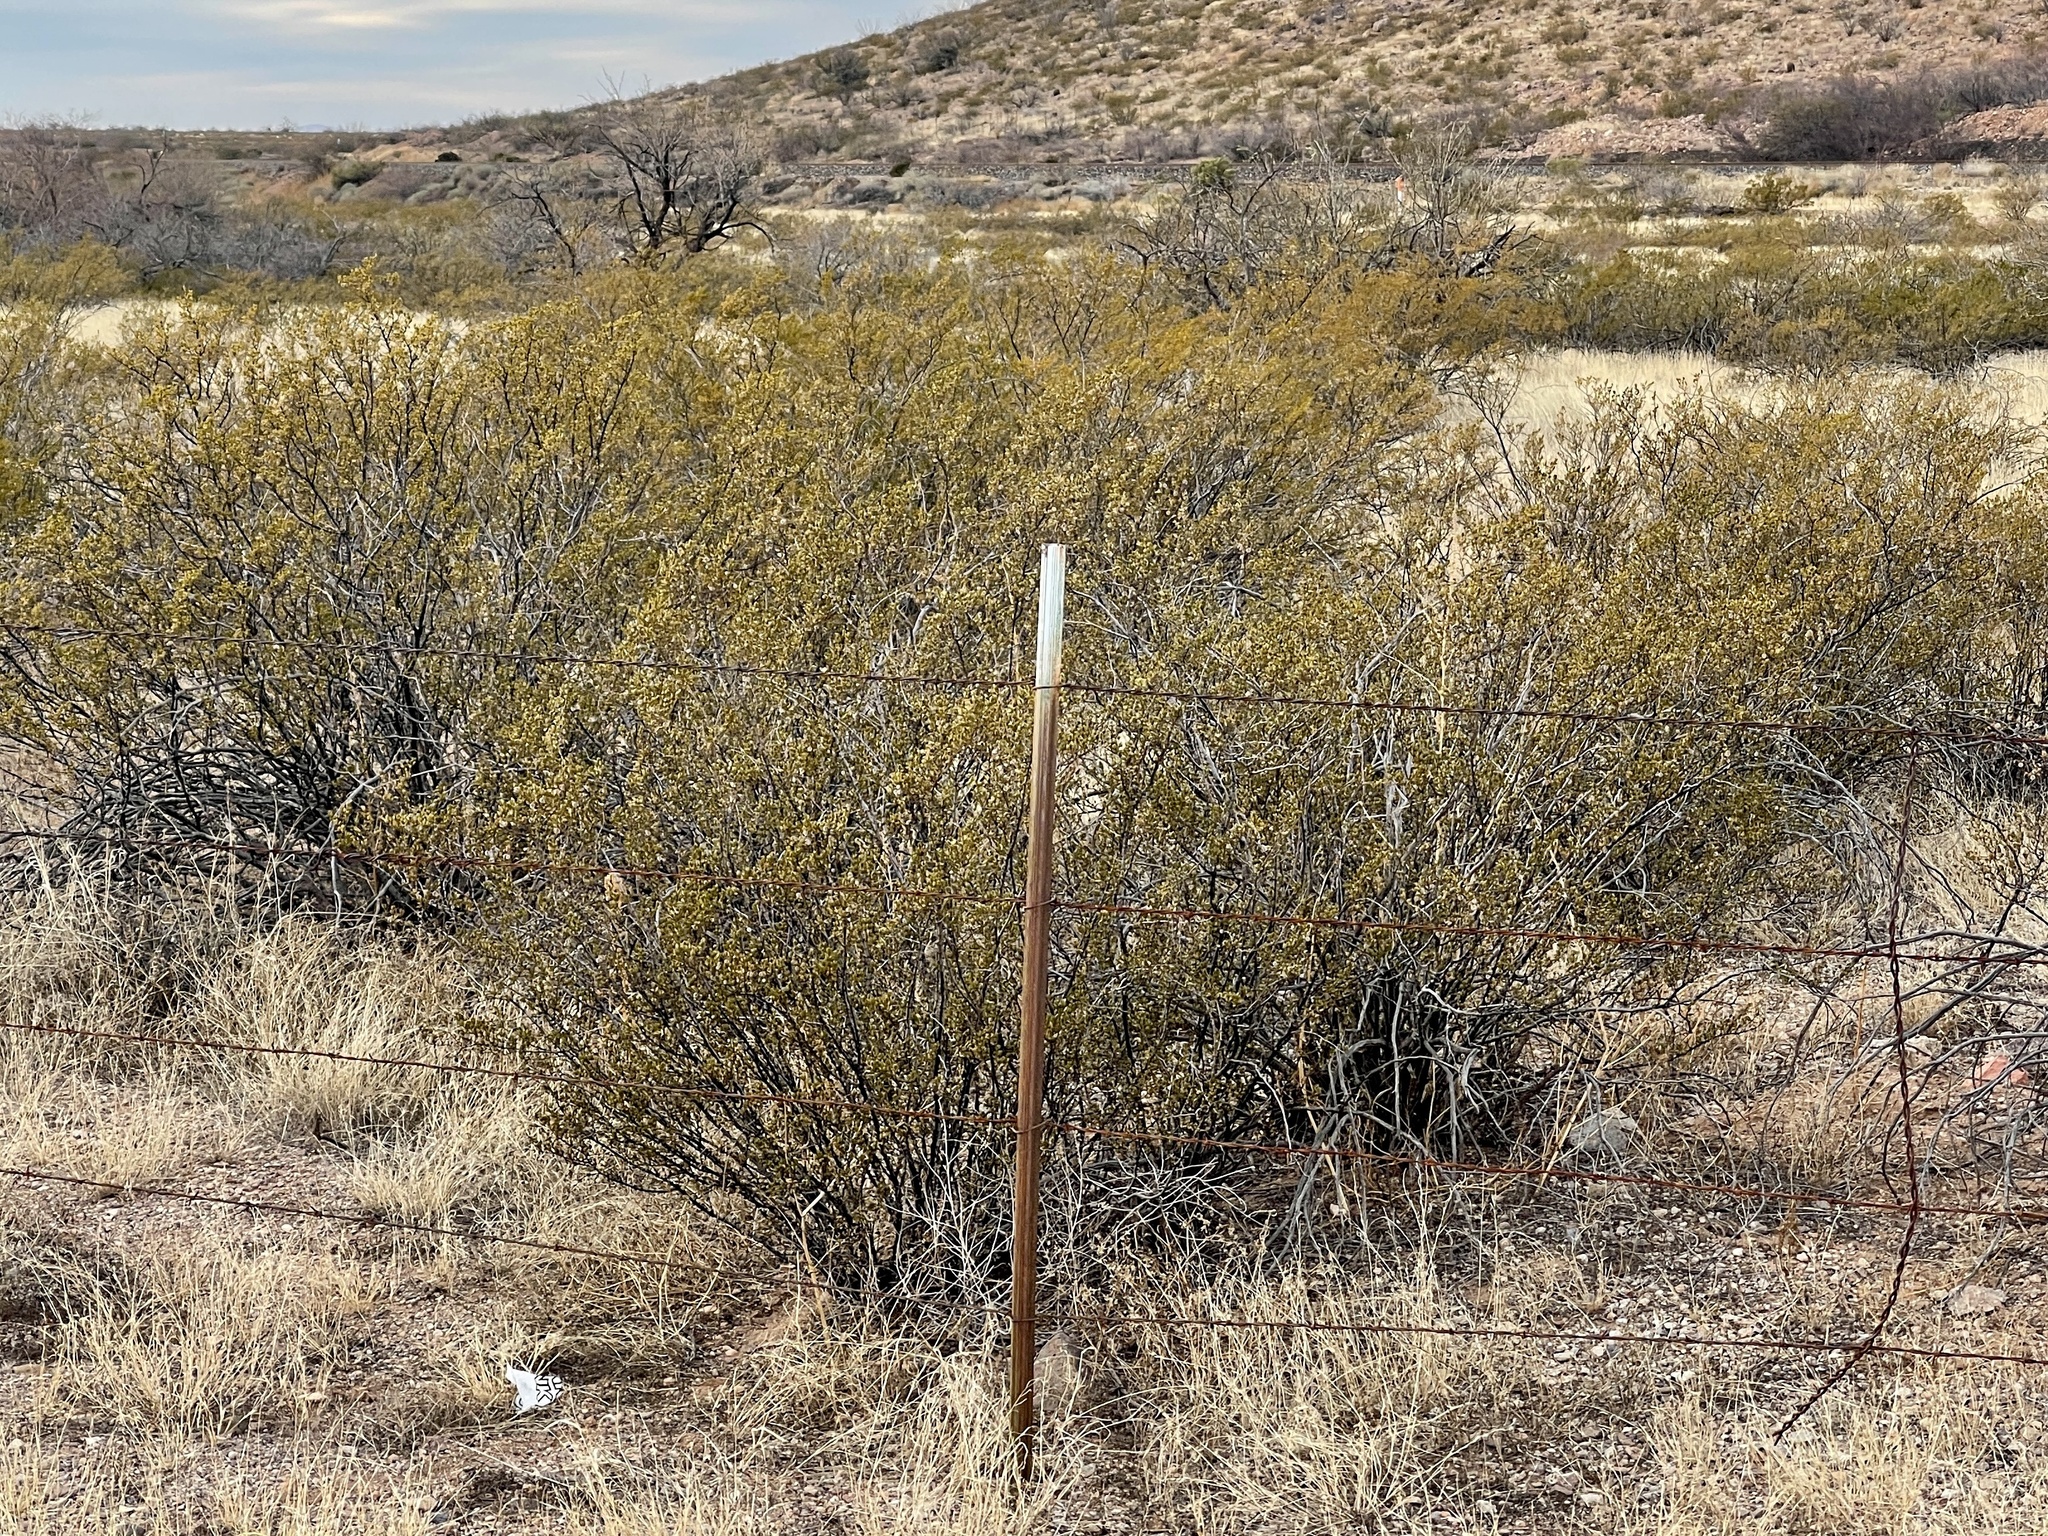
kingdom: Plantae
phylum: Tracheophyta
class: Magnoliopsida
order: Zygophyllales
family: Zygophyllaceae
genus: Larrea
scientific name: Larrea tridentata
